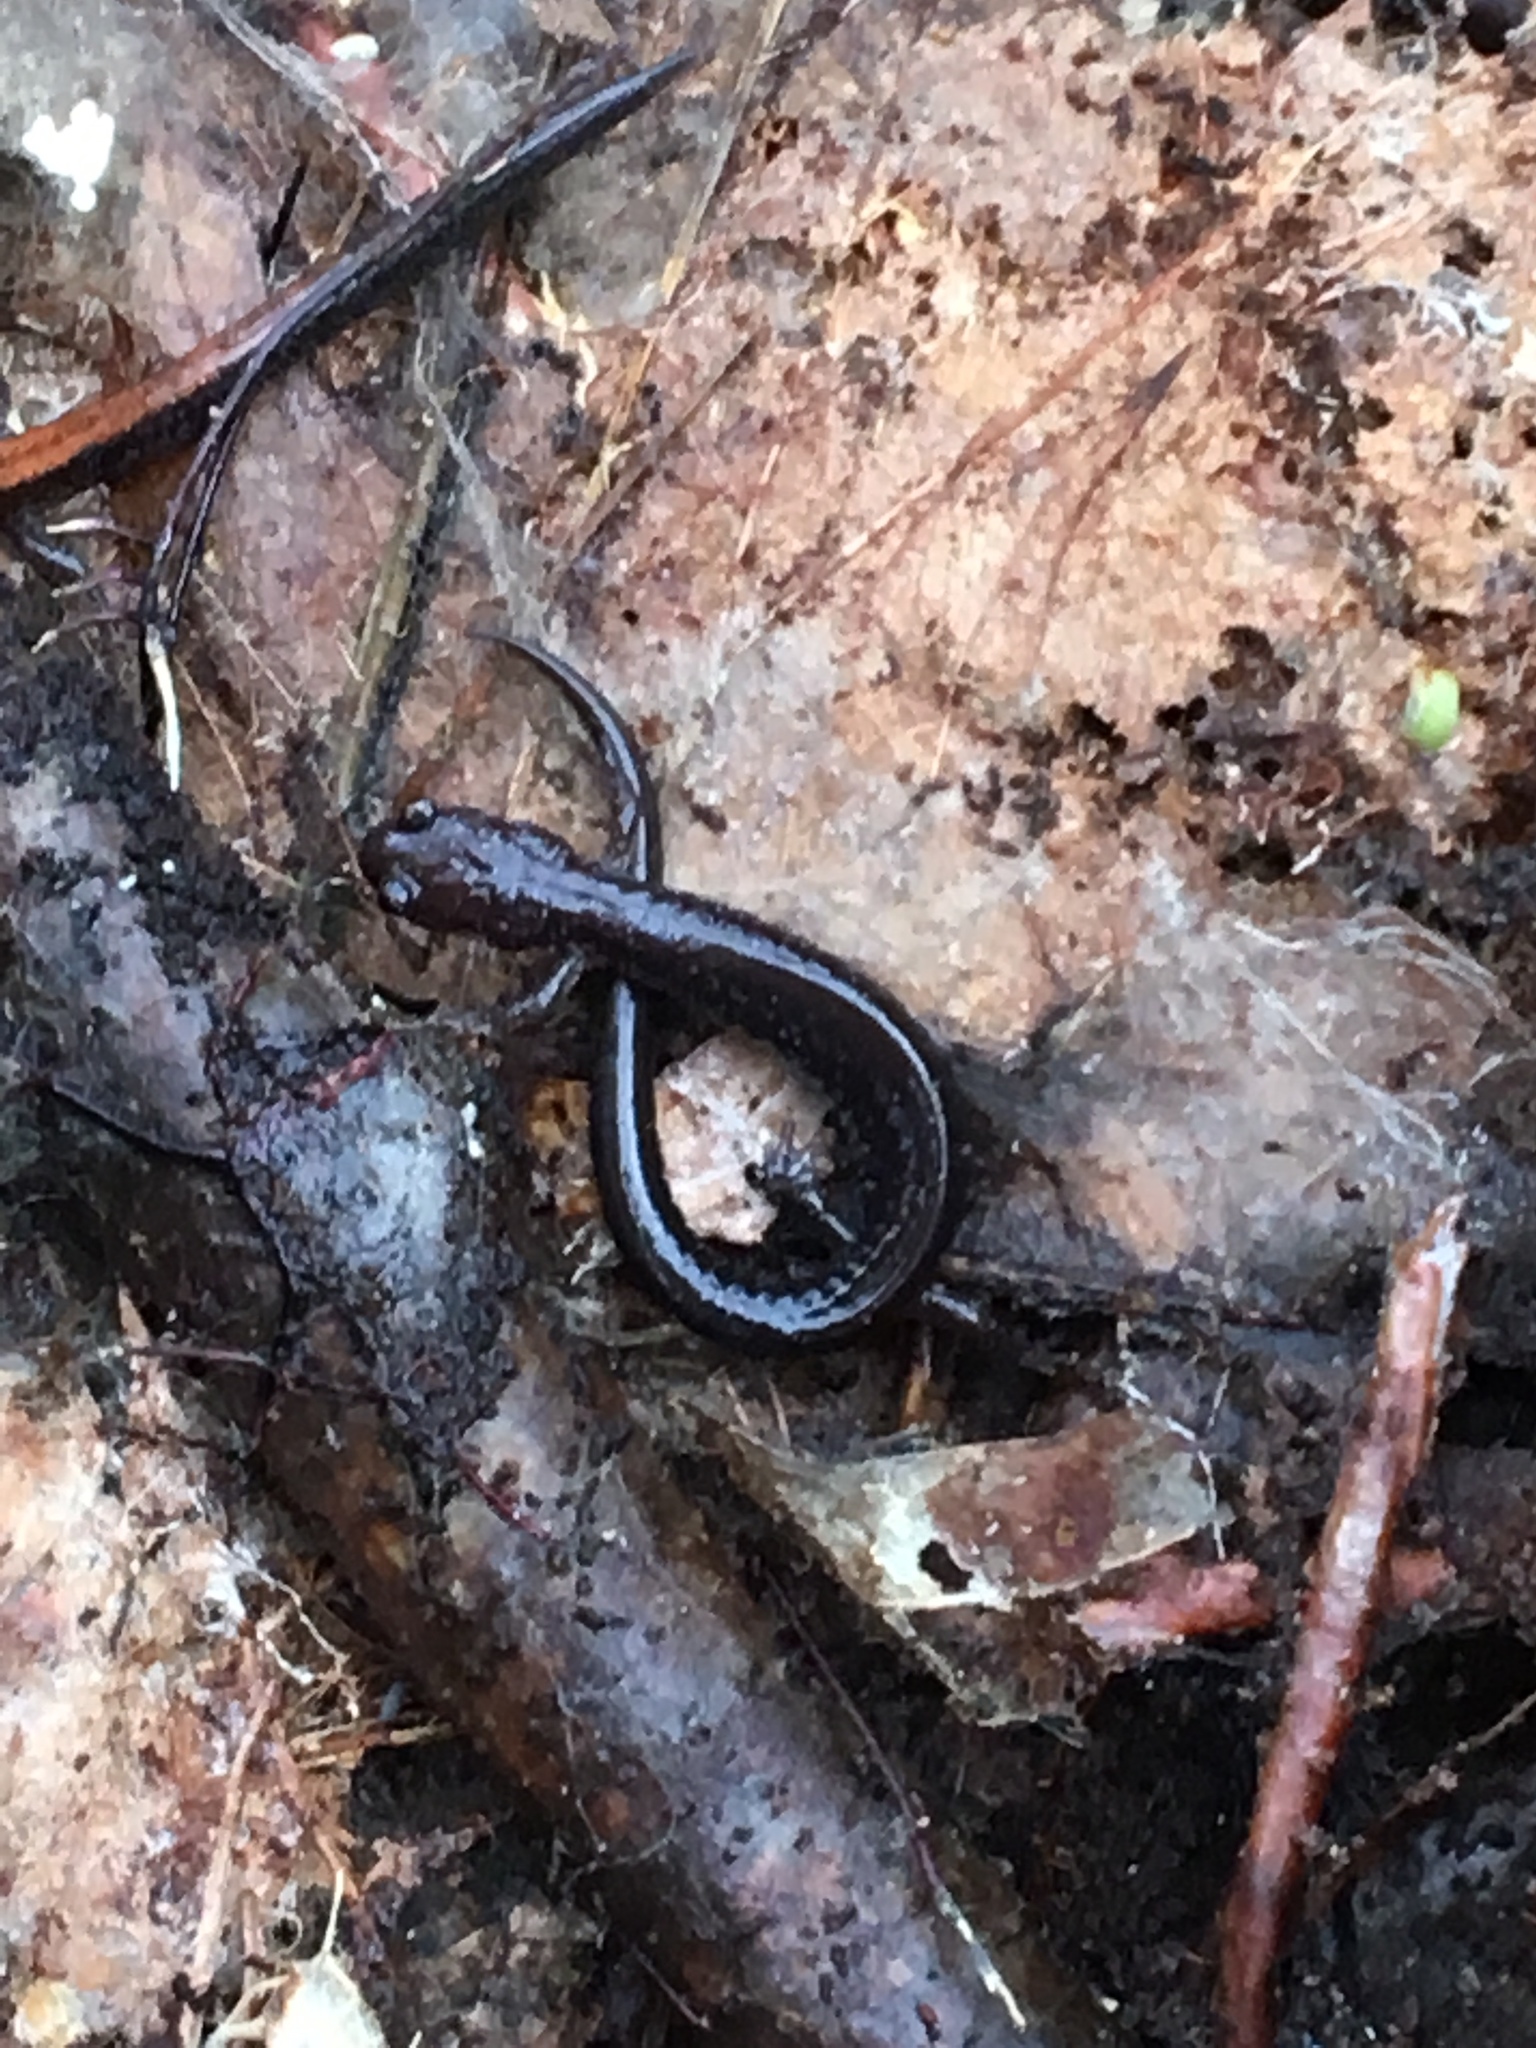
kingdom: Animalia
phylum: Chordata
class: Amphibia
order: Caudata
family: Plethodontidae
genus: Plethodon
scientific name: Plethodon cinereus
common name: Redback salamander
